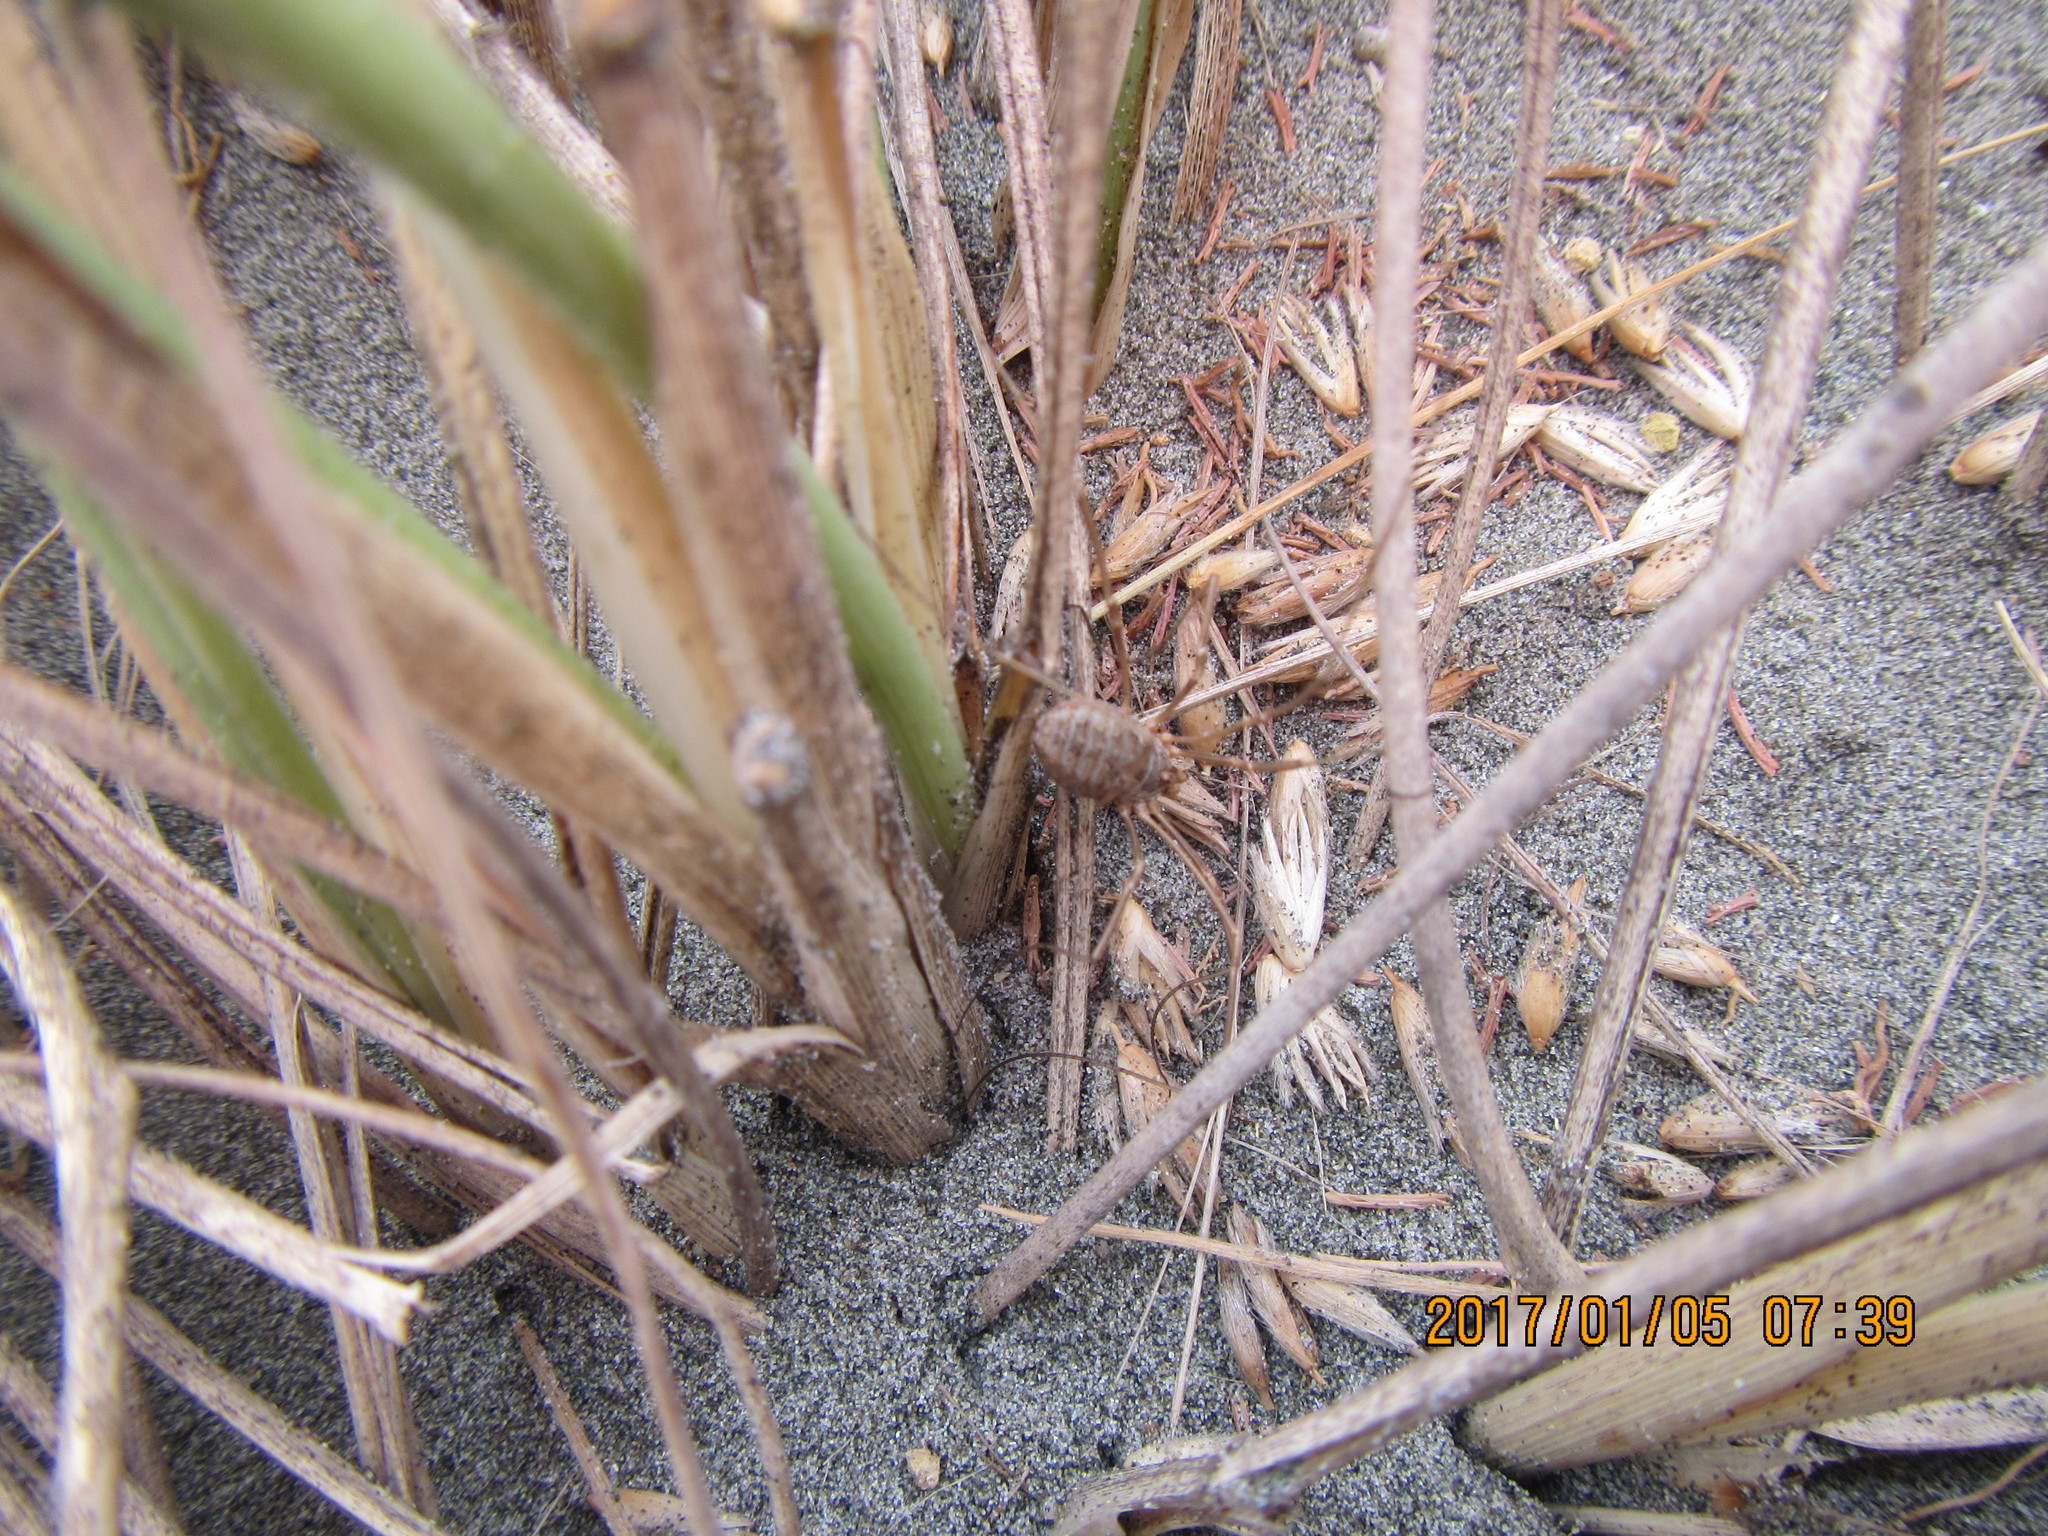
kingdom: Animalia
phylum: Arthropoda
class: Arachnida
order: Opiliones
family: Phalangiidae
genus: Phalangium
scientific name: Phalangium opilio
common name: Daddy longleg
